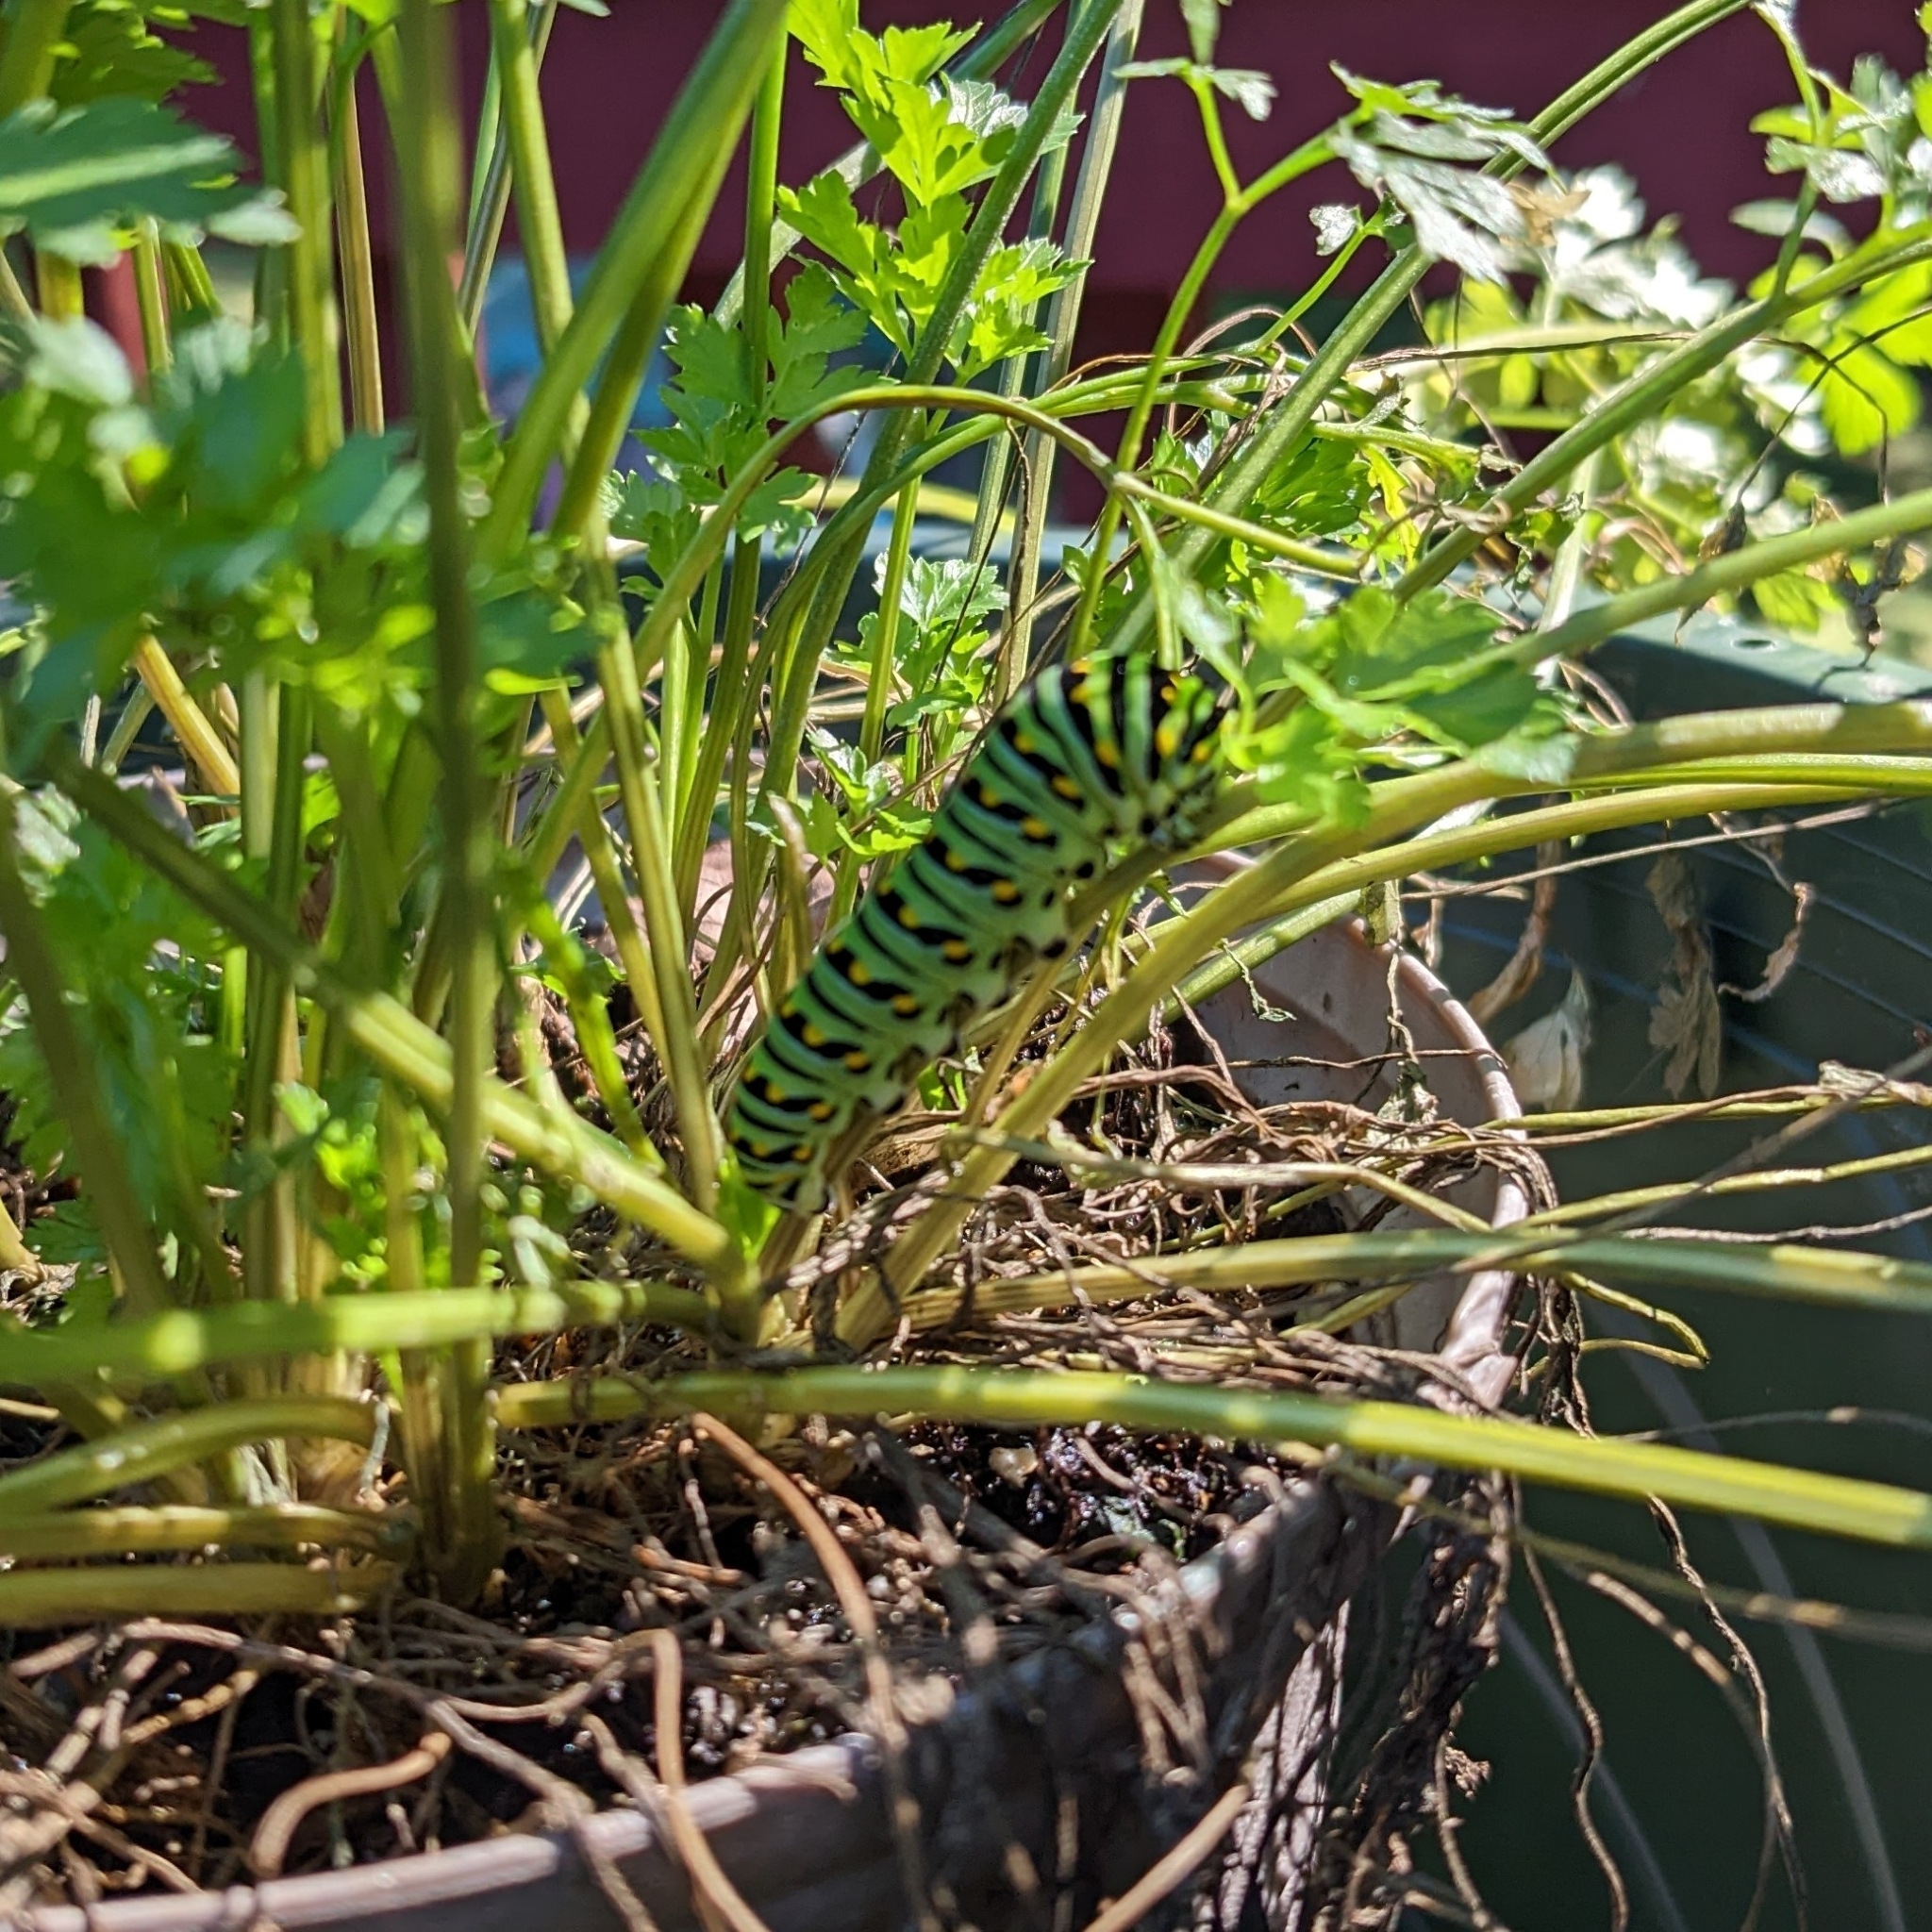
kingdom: Animalia
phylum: Arthropoda
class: Insecta
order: Lepidoptera
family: Papilionidae
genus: Papilio
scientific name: Papilio polyxenes
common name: Black swallowtail
